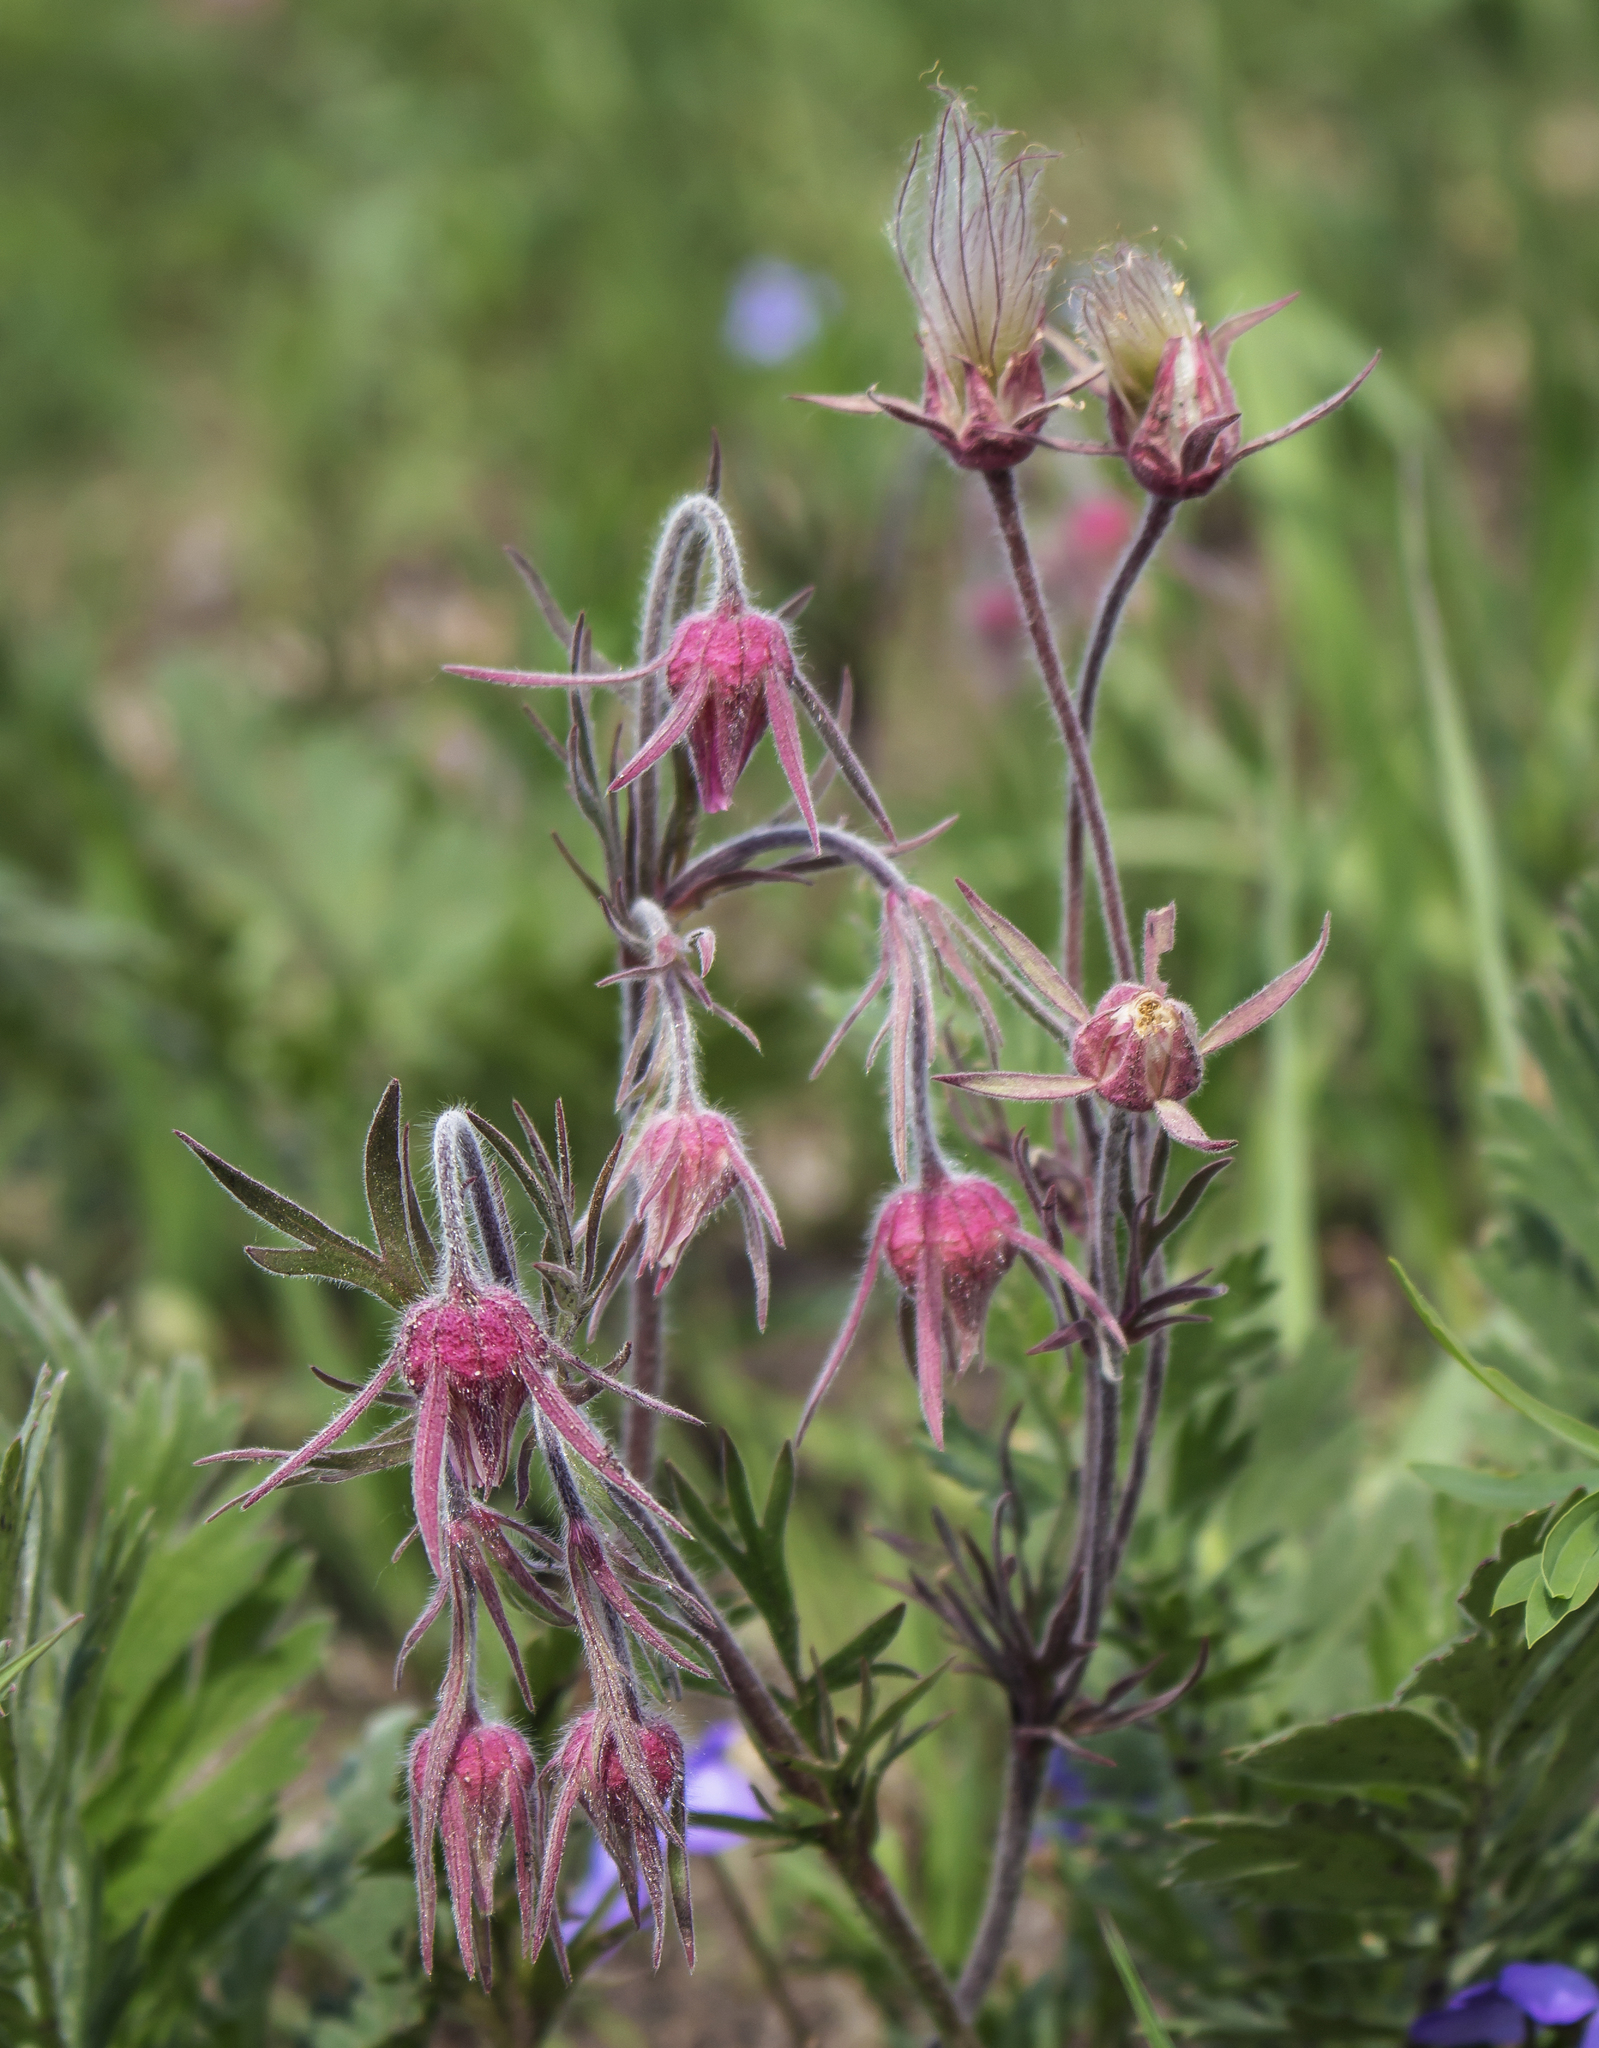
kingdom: Plantae
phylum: Tracheophyta
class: Magnoliopsida
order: Rosales
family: Rosaceae
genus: Geum
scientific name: Geum triflorum
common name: Old man's whiskers
